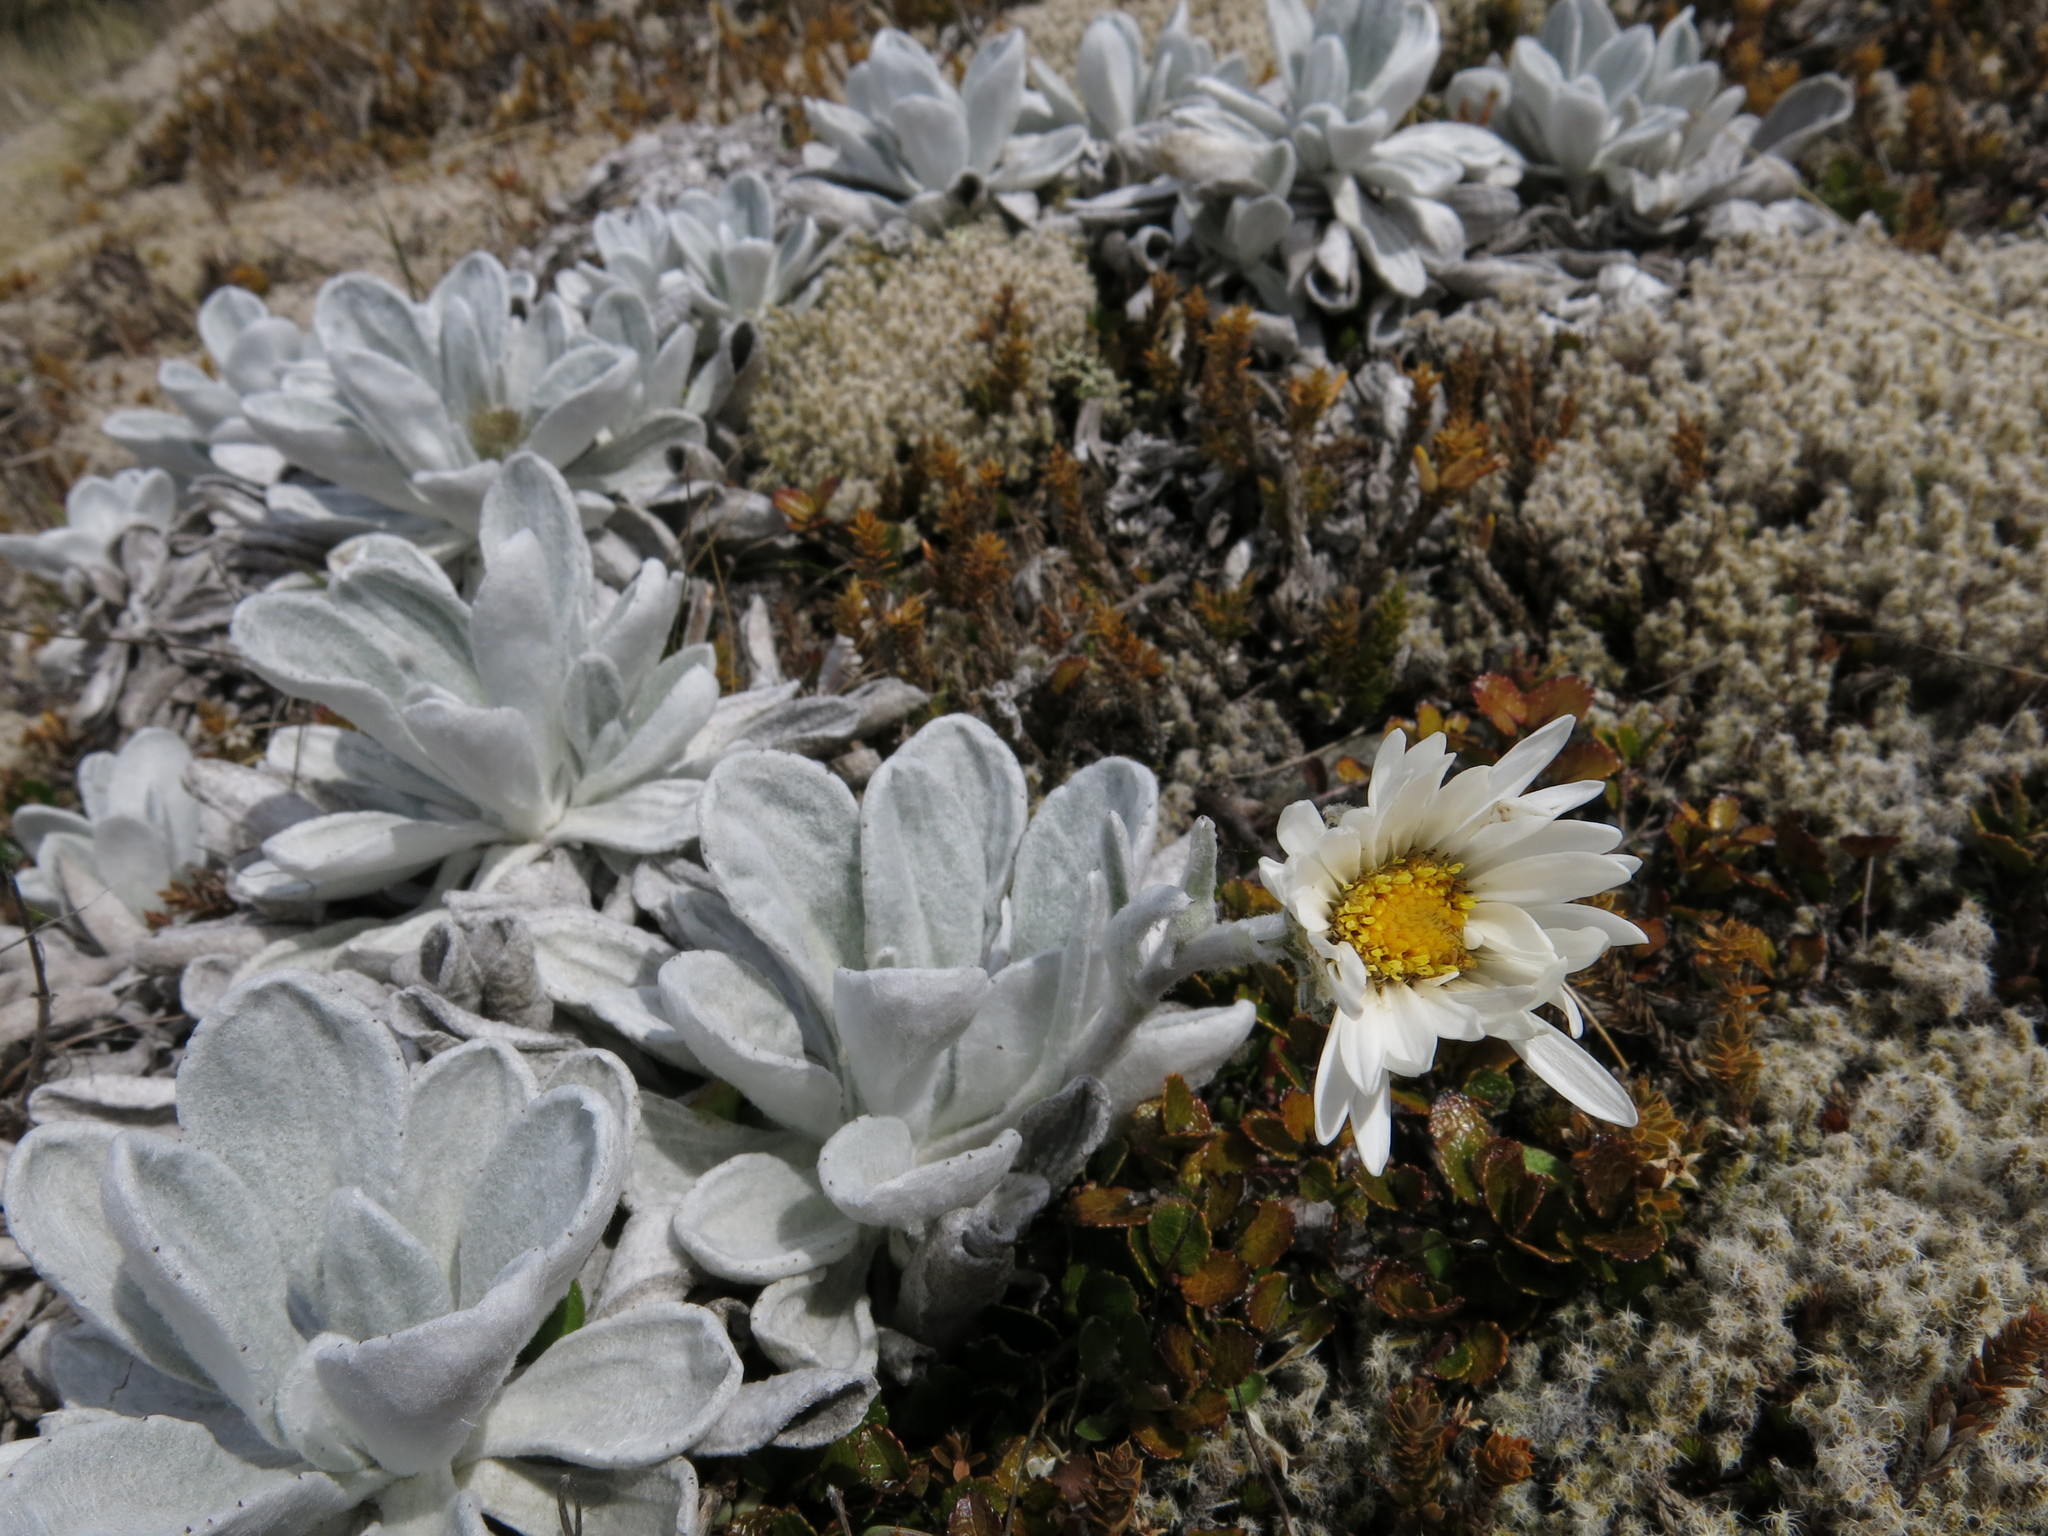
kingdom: Plantae
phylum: Tracheophyta
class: Magnoliopsida
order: Asterales
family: Asteraceae
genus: Celmisia
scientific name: Celmisia allanii
